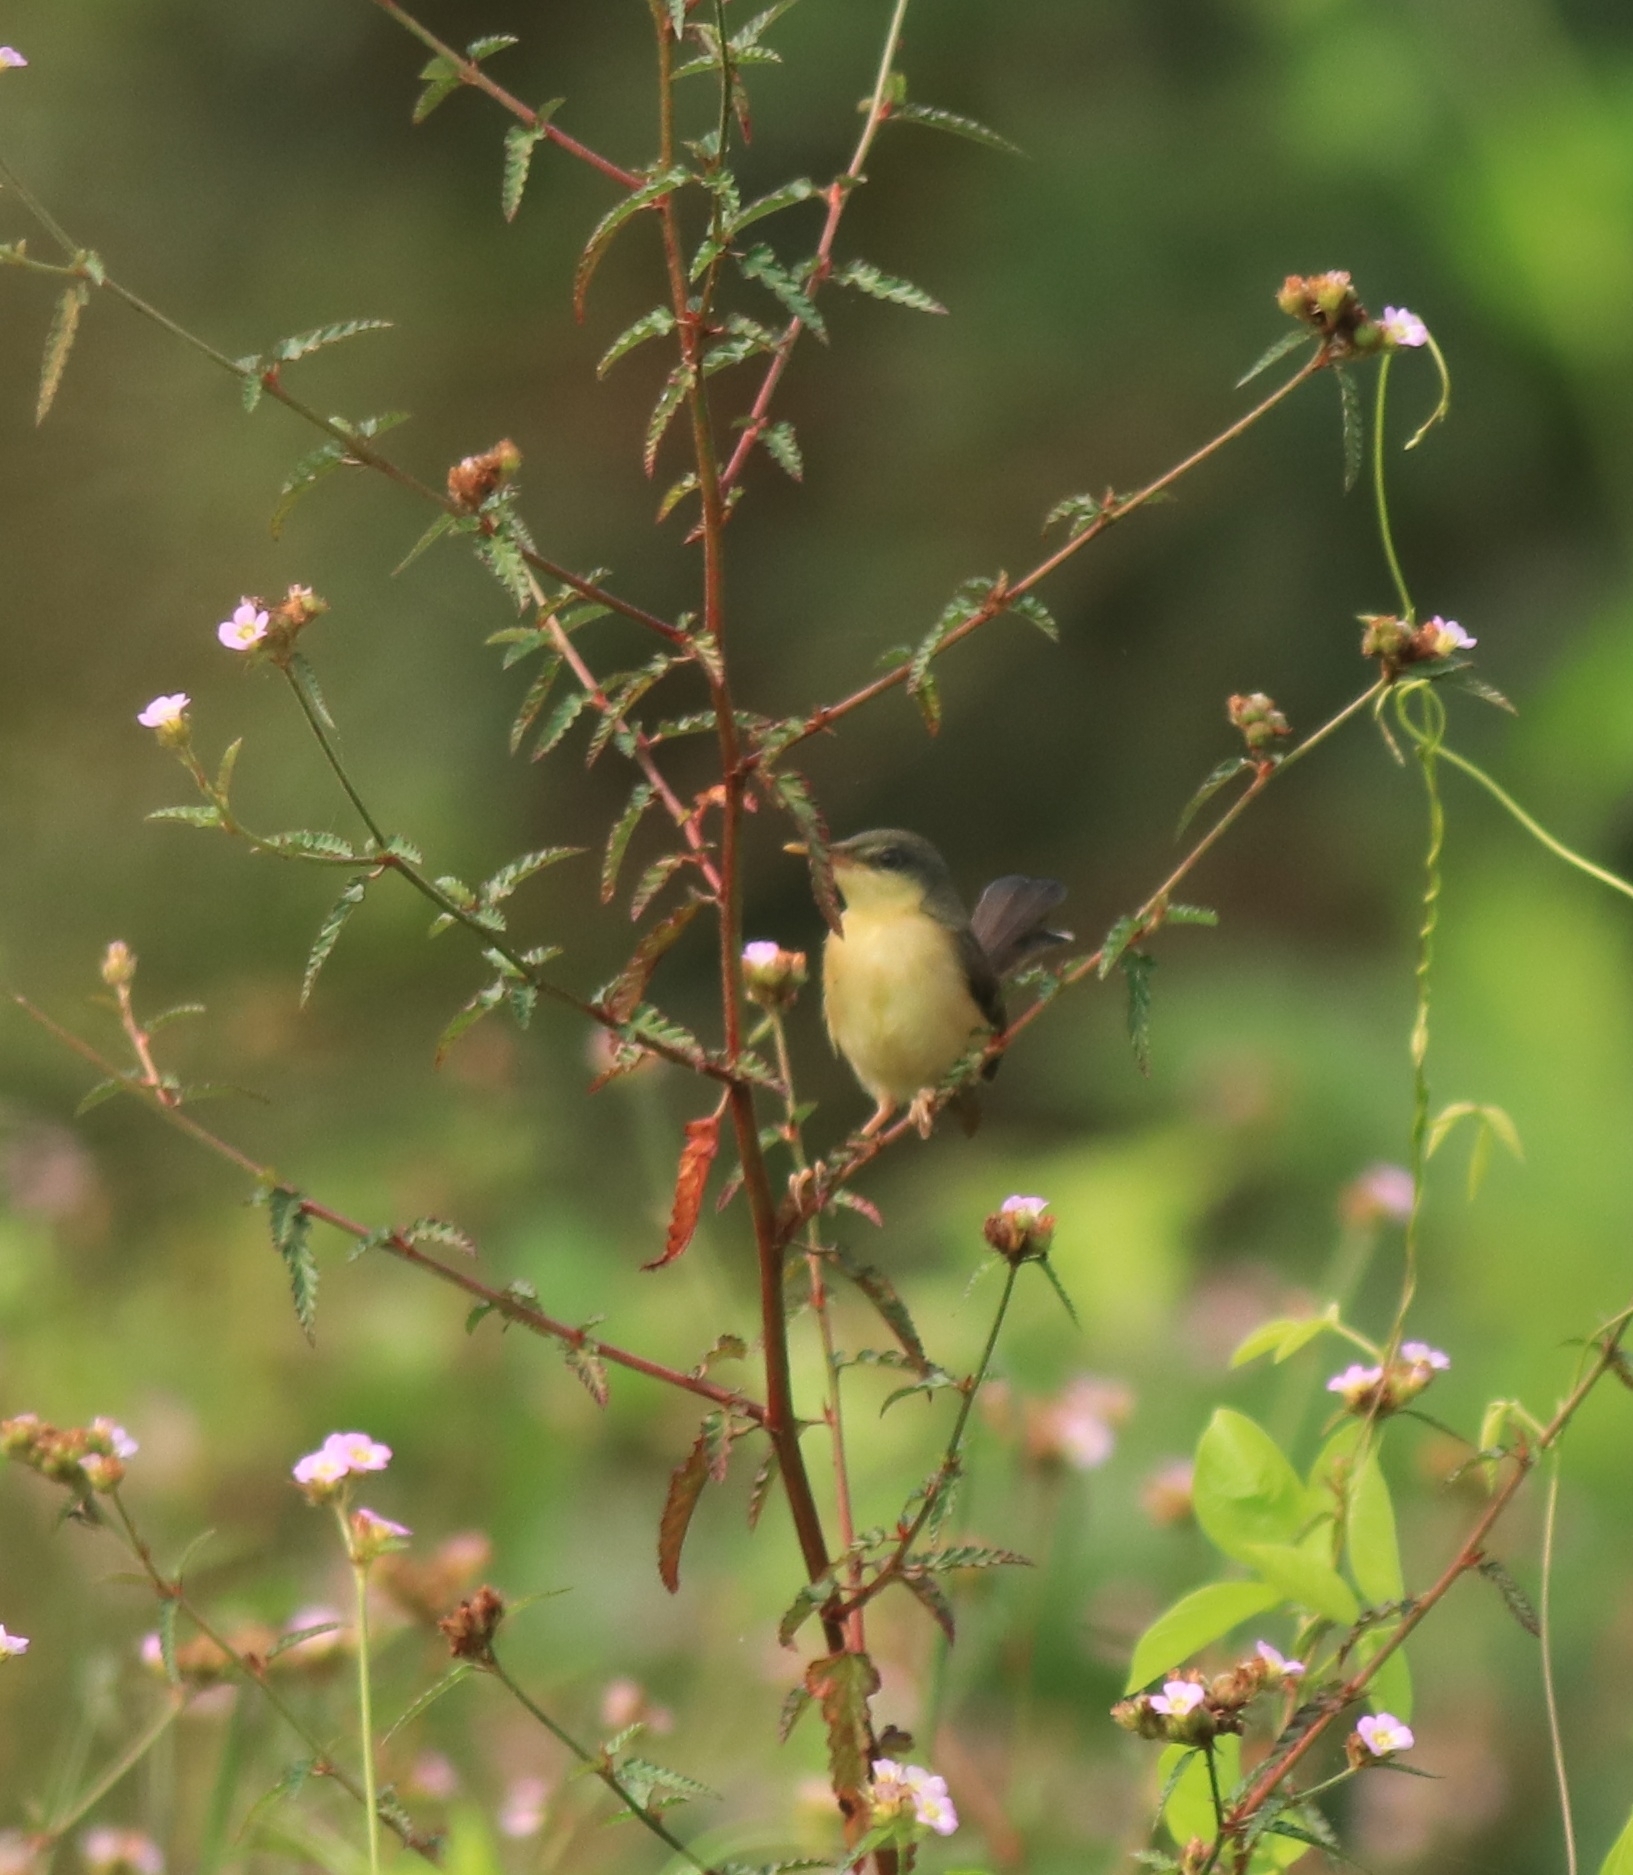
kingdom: Animalia
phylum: Chordata
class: Aves
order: Passeriformes
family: Cisticolidae
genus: Prinia
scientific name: Prinia socialis
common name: Ashy prinia
